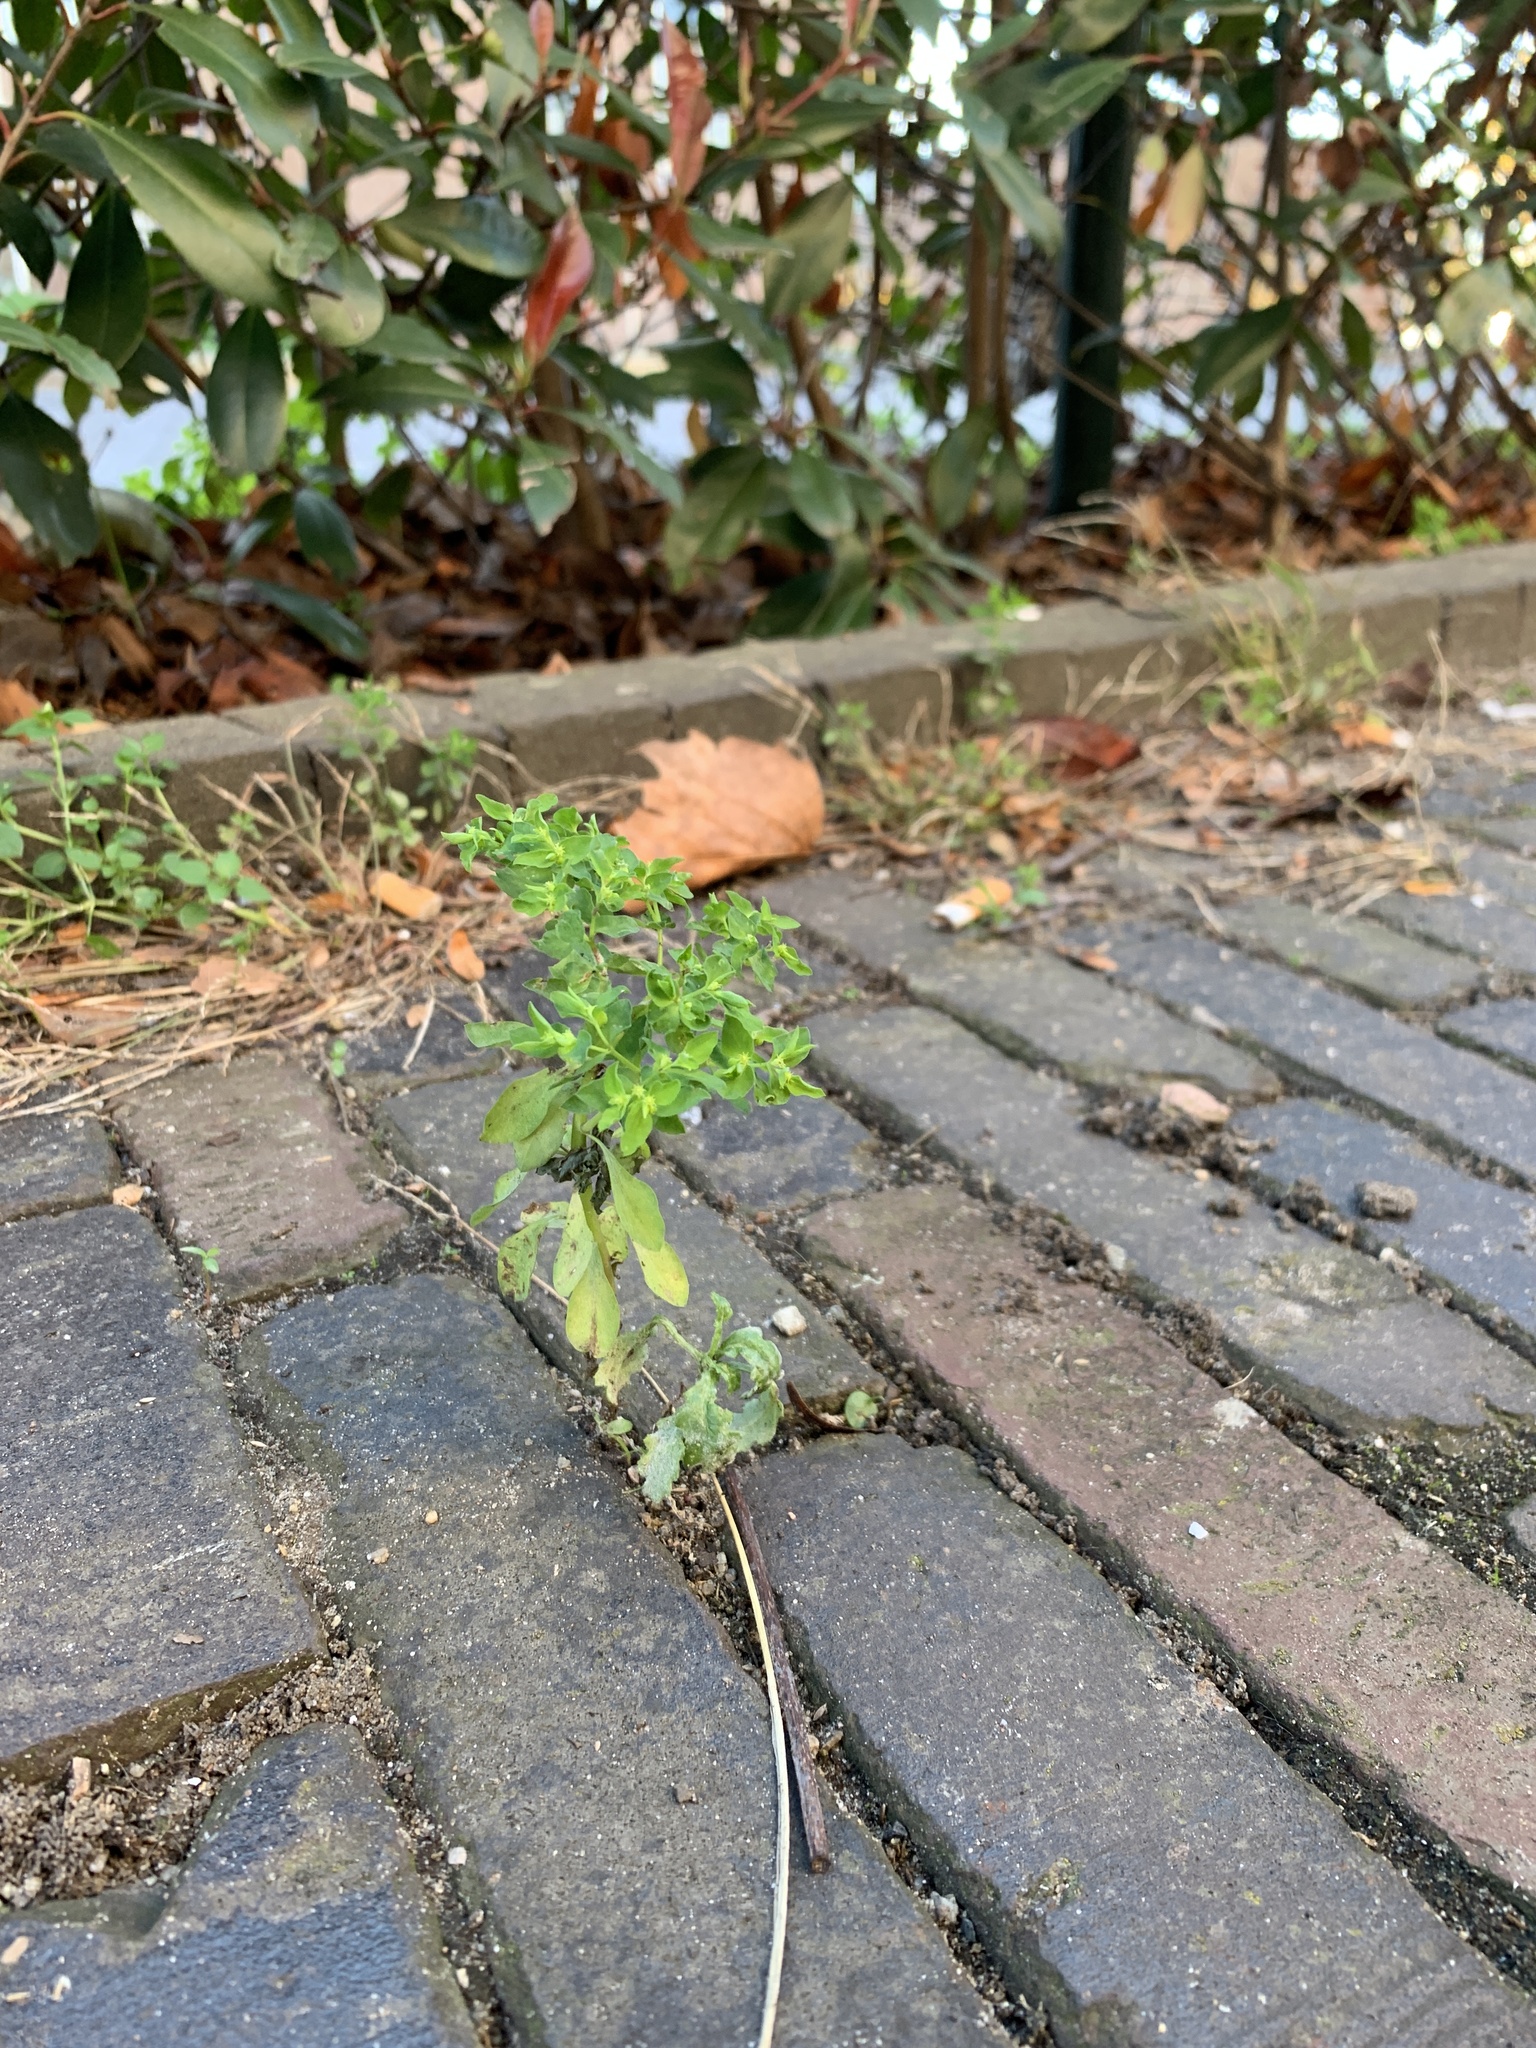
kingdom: Plantae
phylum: Tracheophyta
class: Magnoliopsida
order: Malpighiales
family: Euphorbiaceae
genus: Euphorbia
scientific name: Euphorbia peplus
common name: Petty spurge
